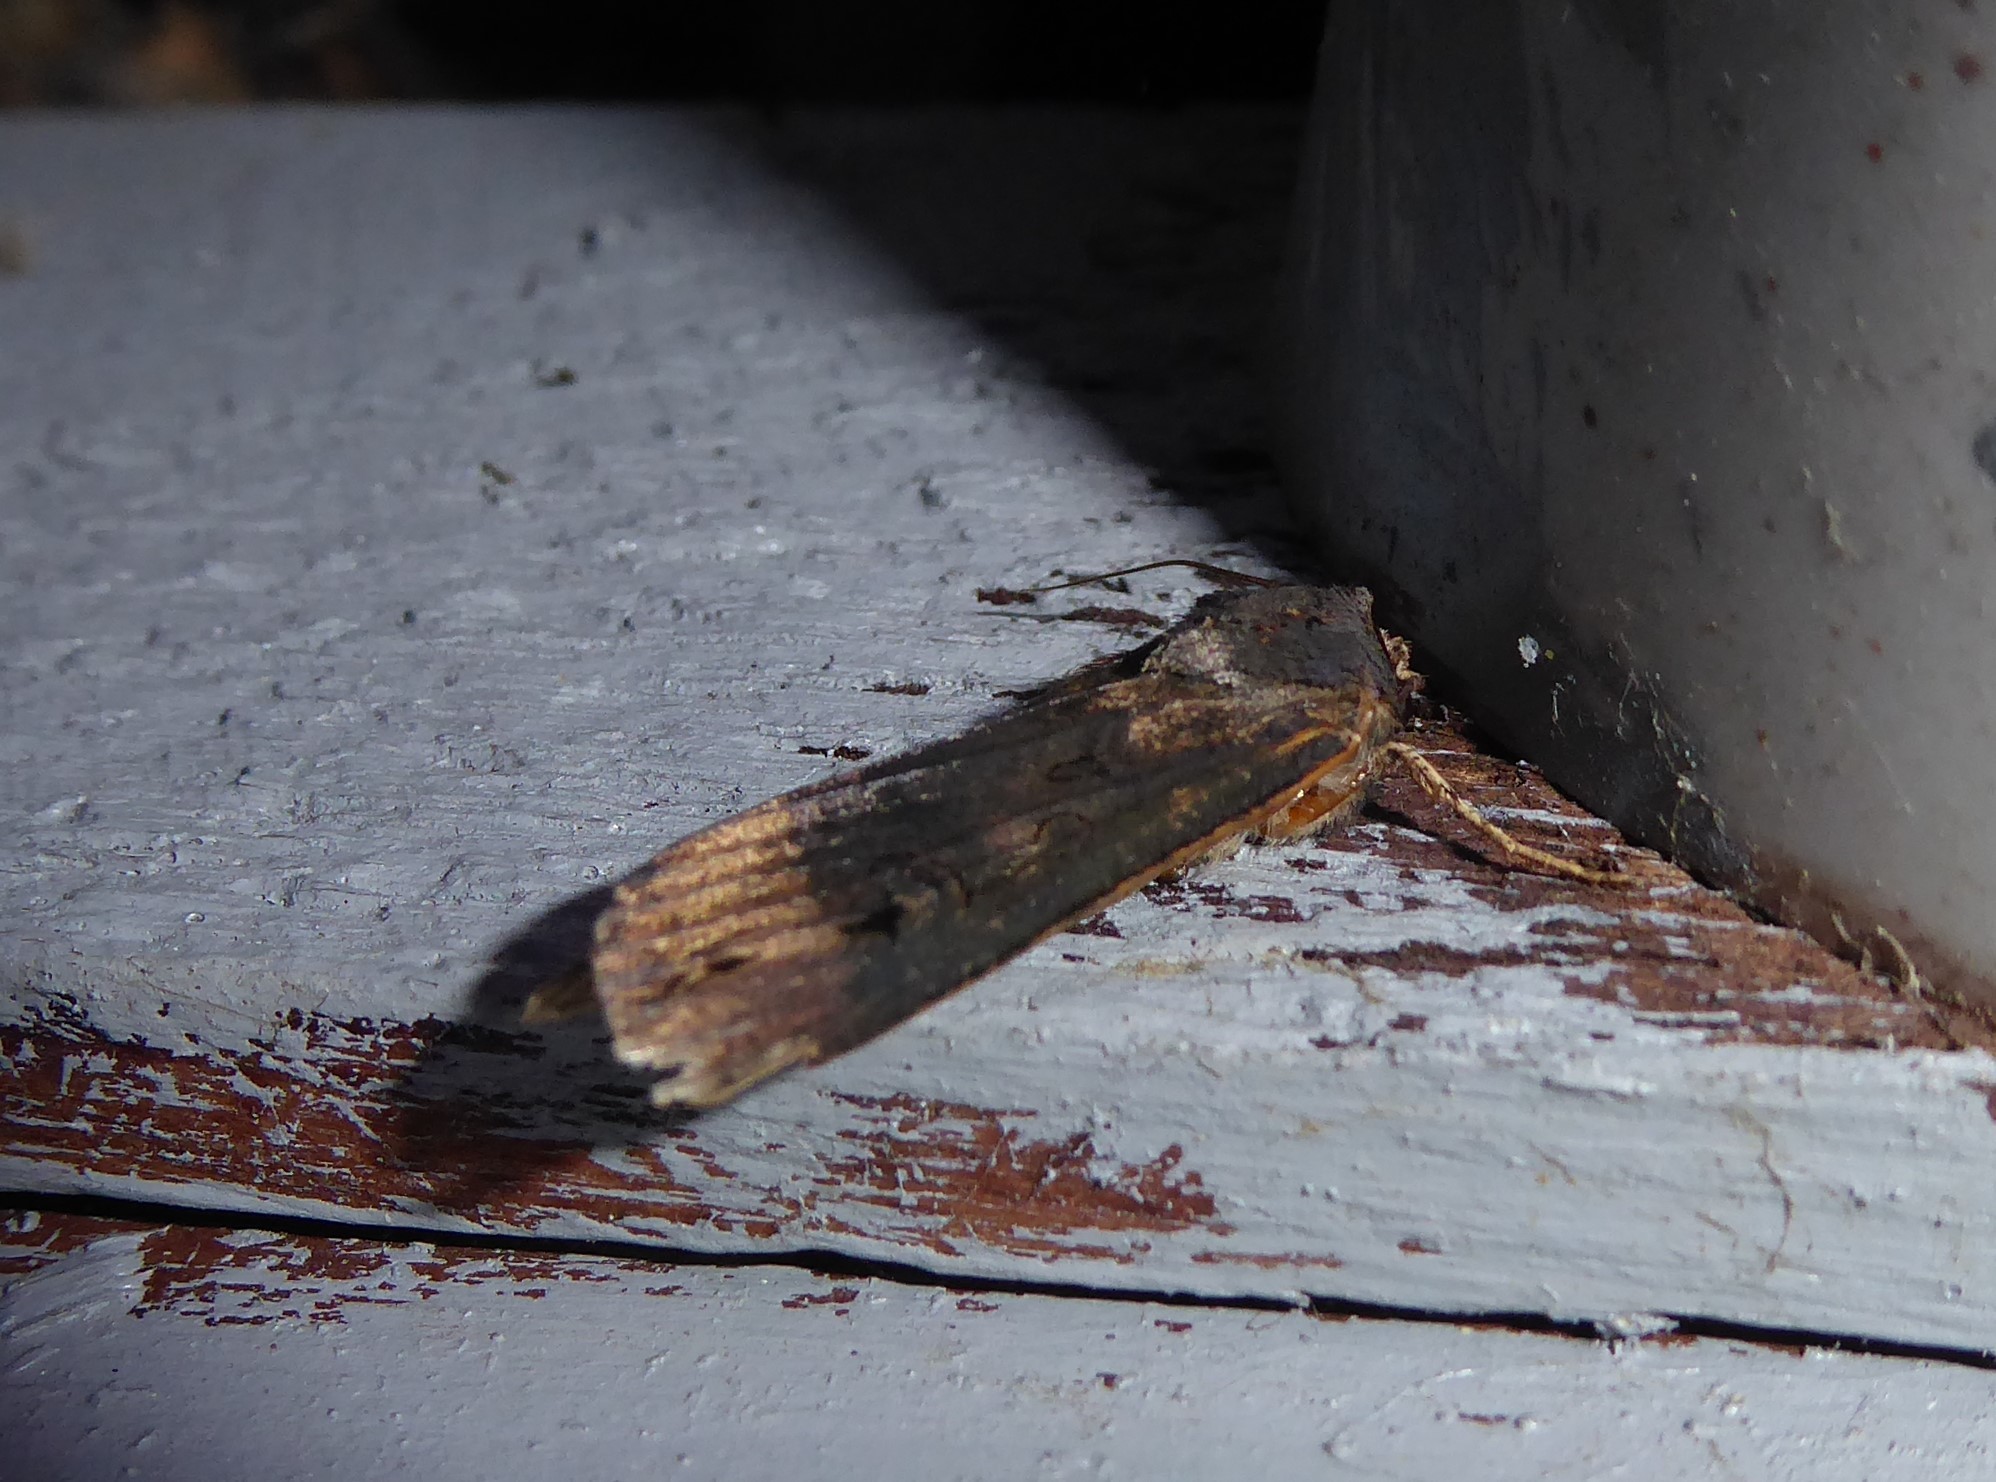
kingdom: Animalia
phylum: Arthropoda
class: Insecta
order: Lepidoptera
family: Noctuidae
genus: Agrotis
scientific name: Agrotis ipsilon
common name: Dark sword-grass
